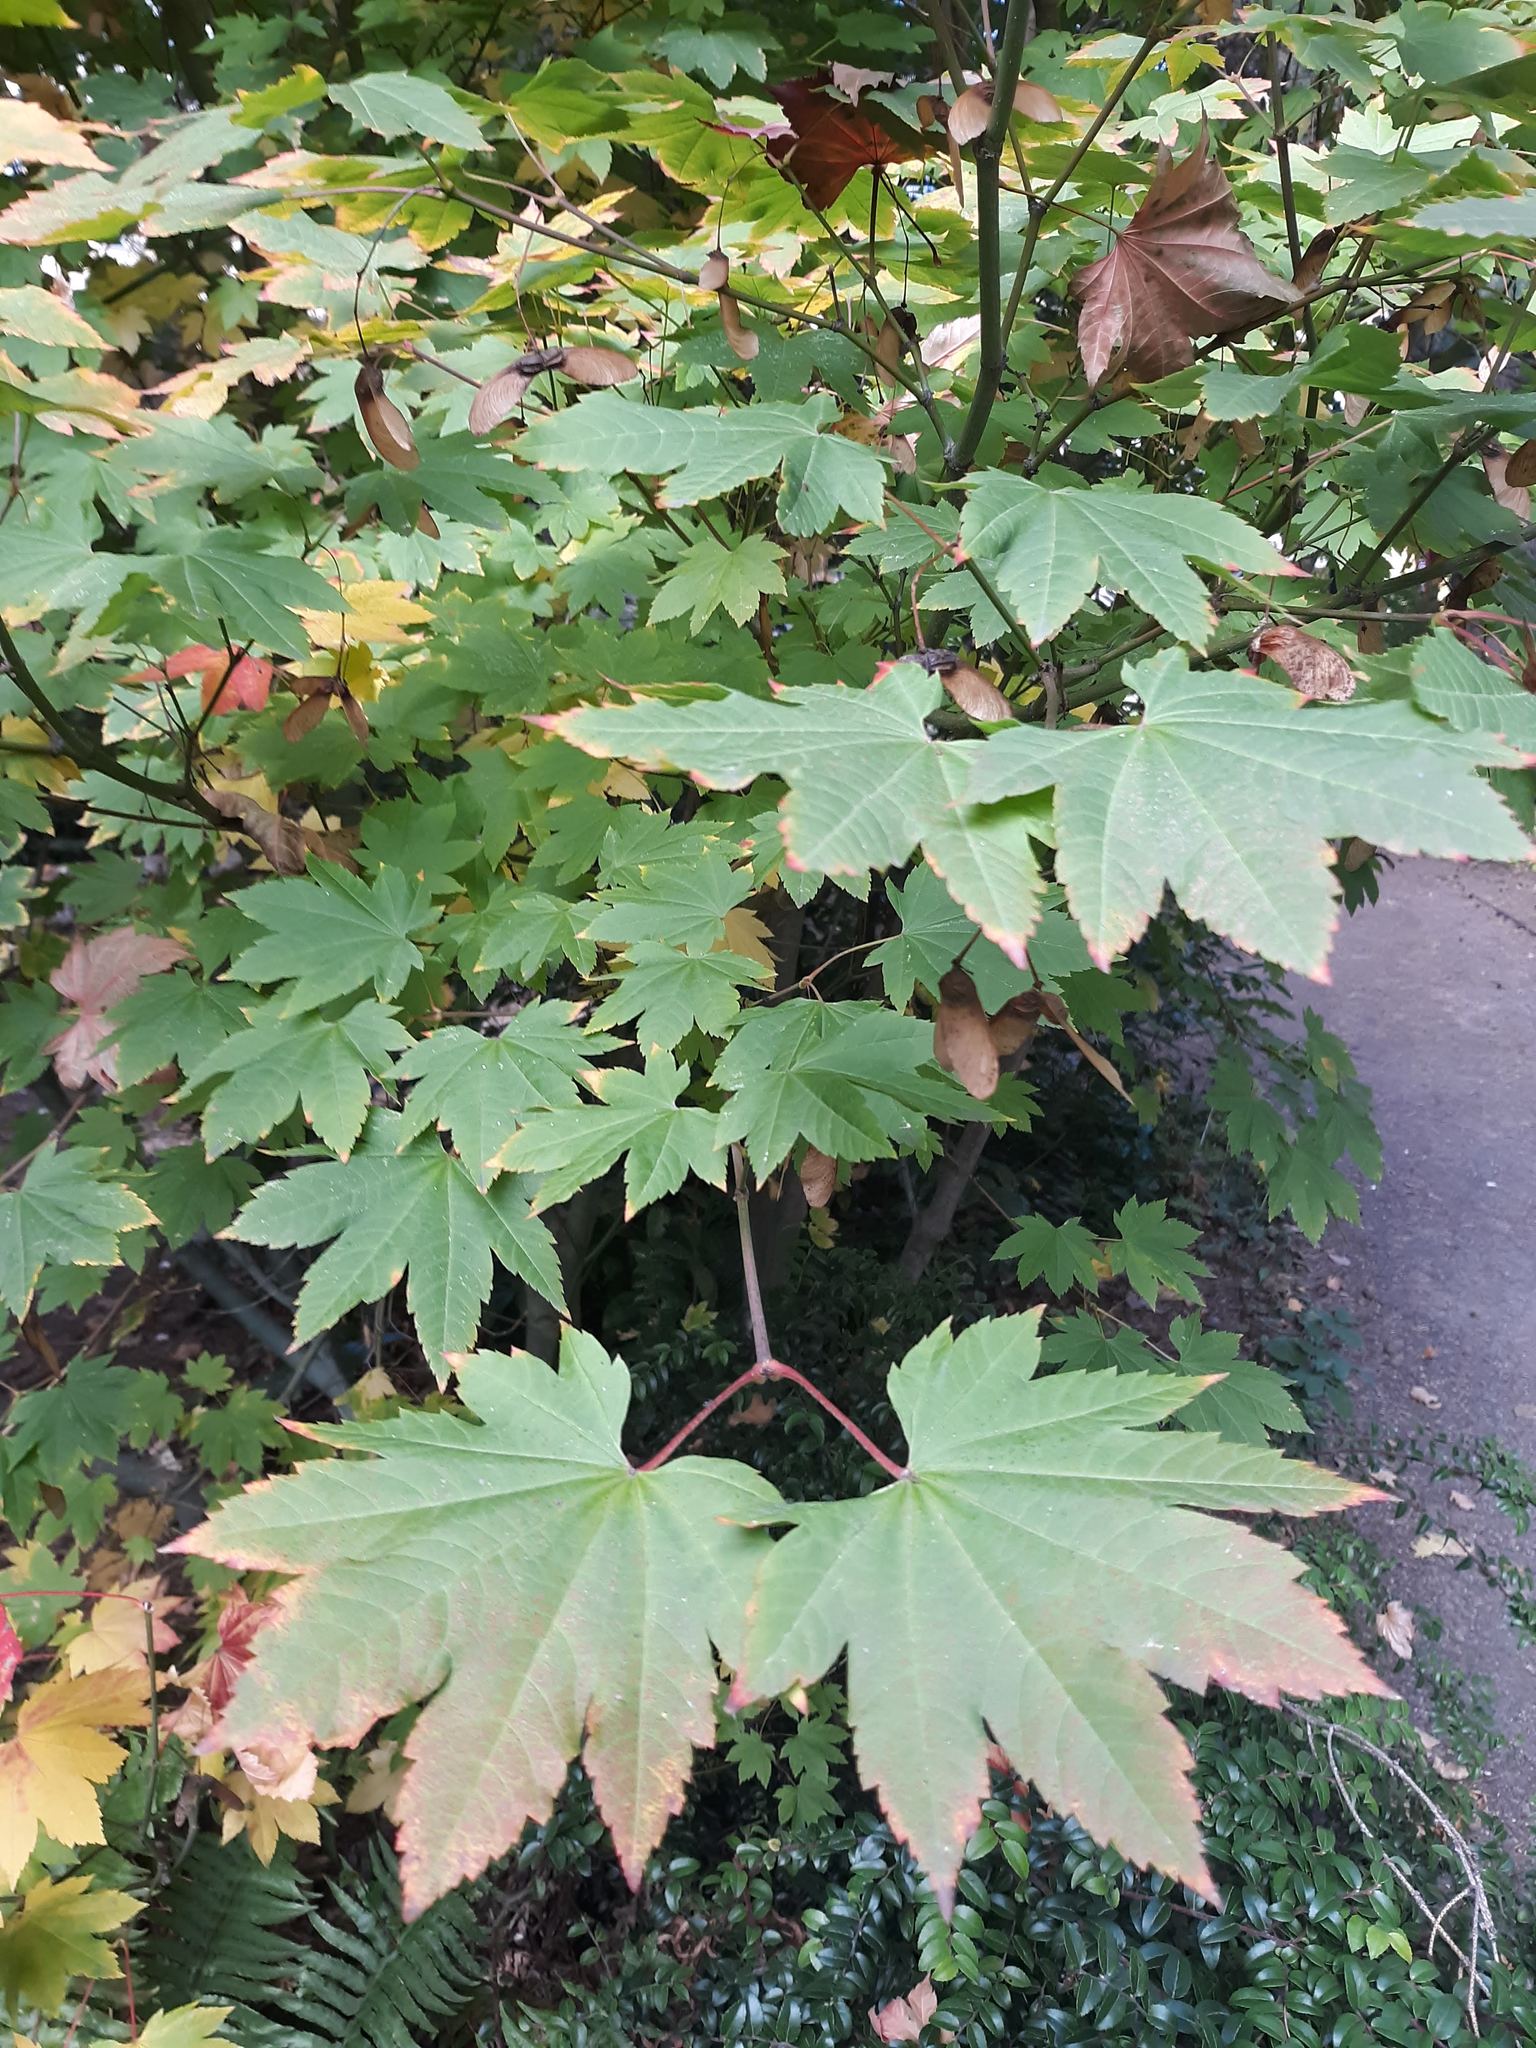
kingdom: Plantae
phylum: Tracheophyta
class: Magnoliopsida
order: Sapindales
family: Sapindaceae
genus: Acer
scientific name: Acer circinatum
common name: Vine maple
